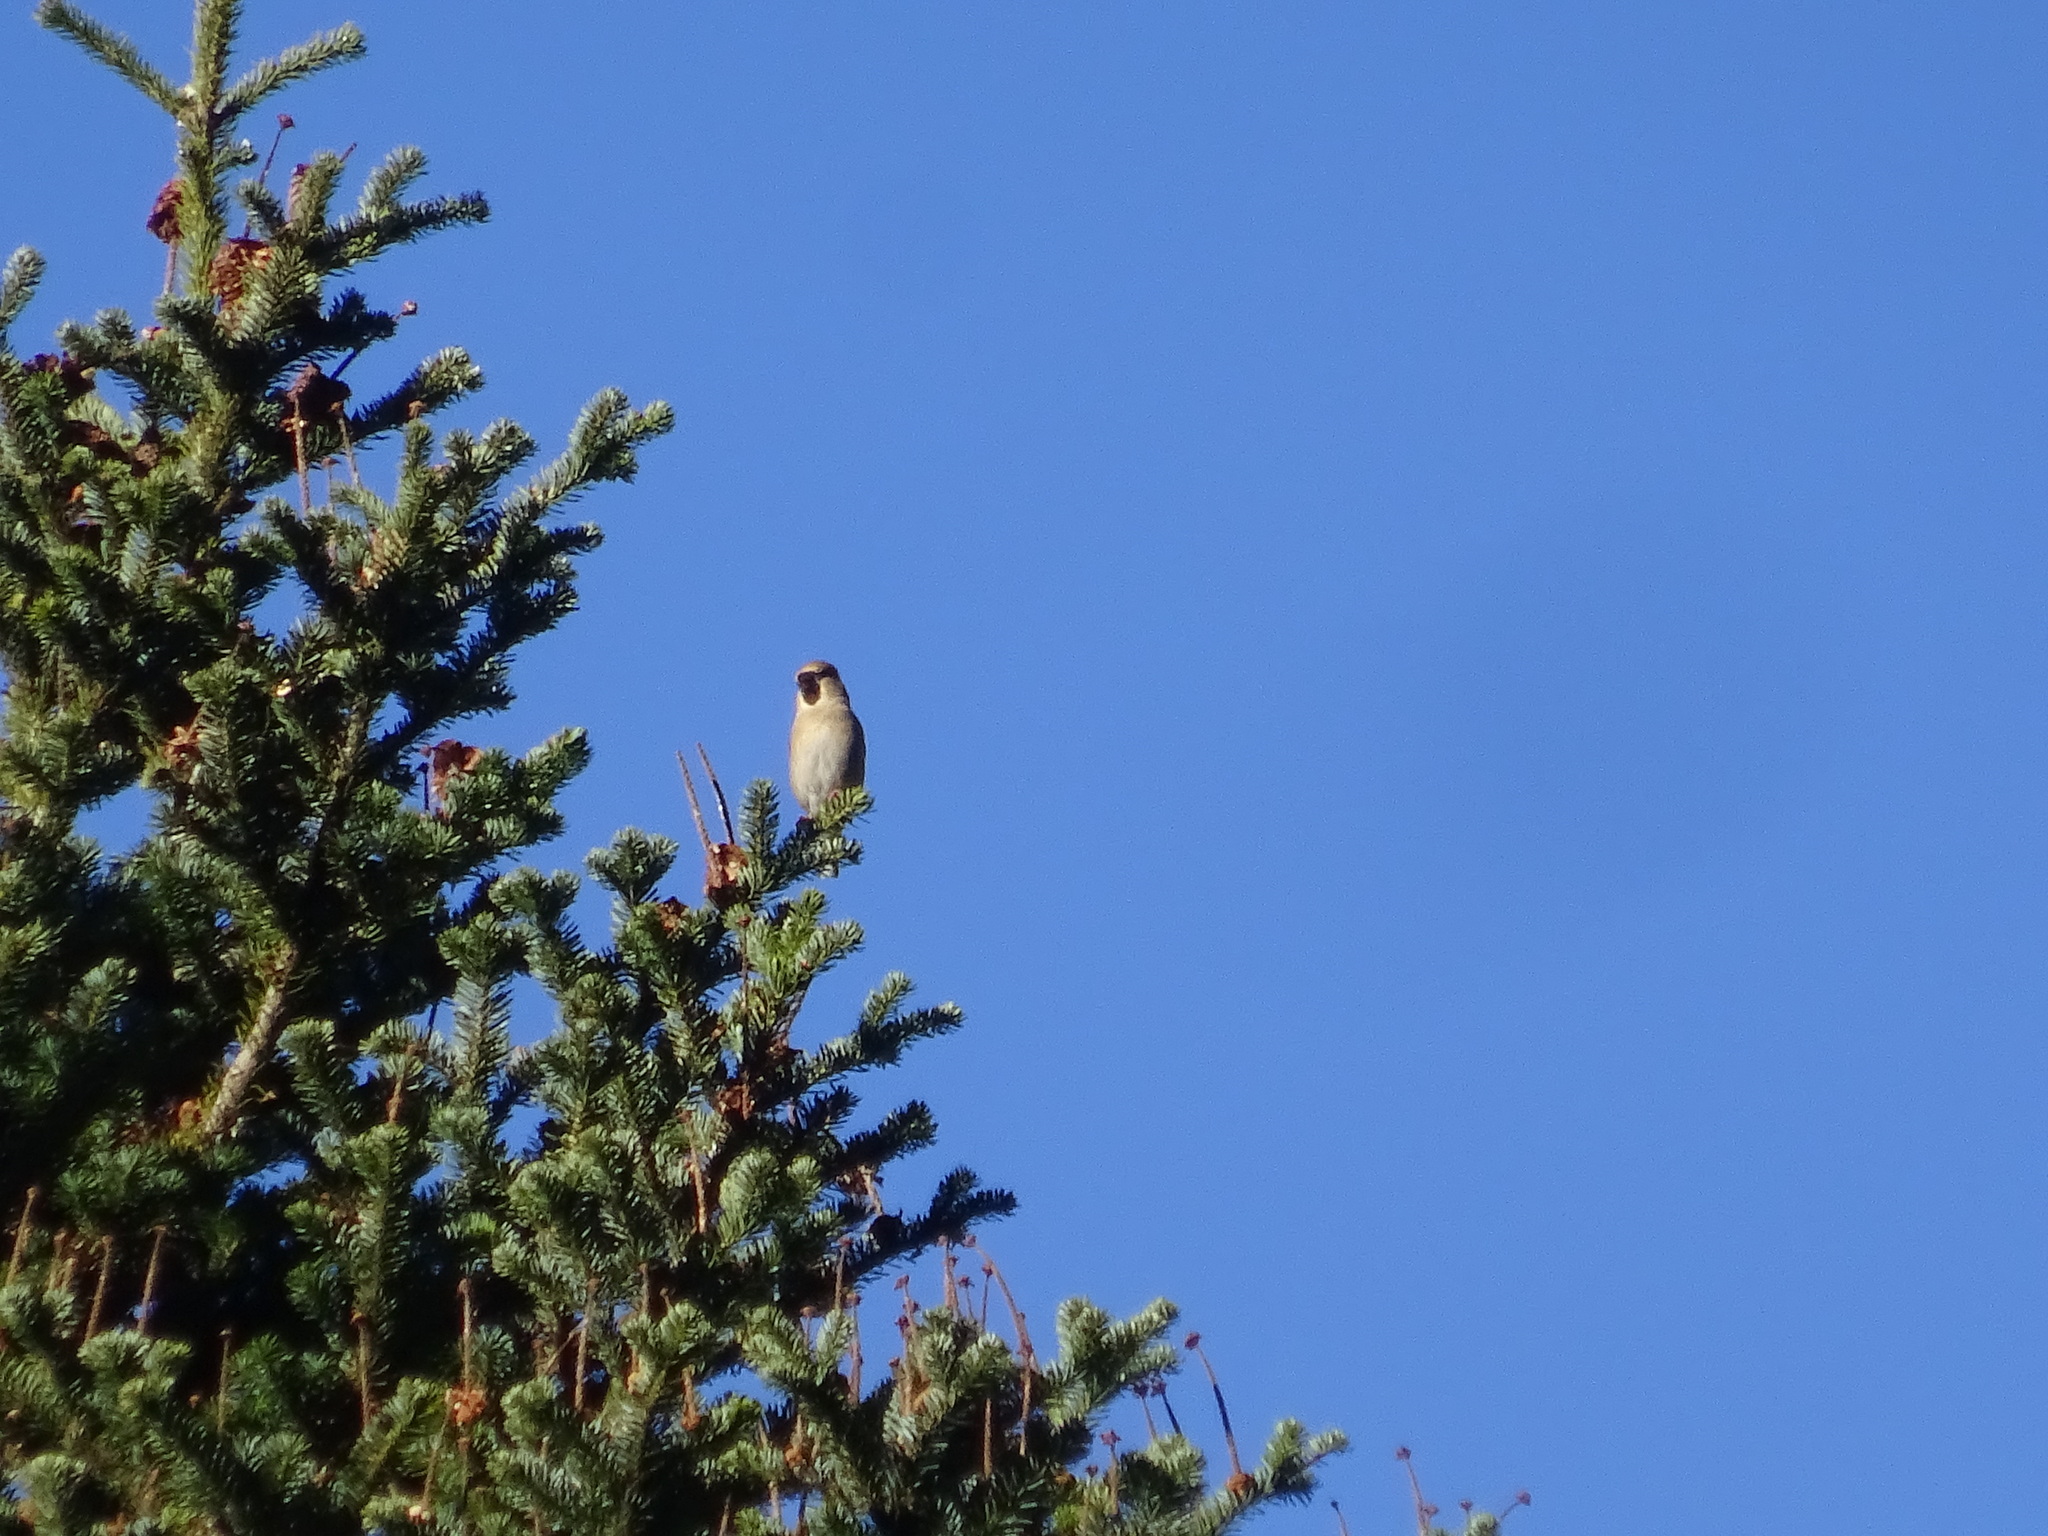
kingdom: Animalia
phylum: Chordata
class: Aves
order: Passeriformes
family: Fringillidae
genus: Coccothraustes
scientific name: Coccothraustes coccothraustes
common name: Hawfinch
